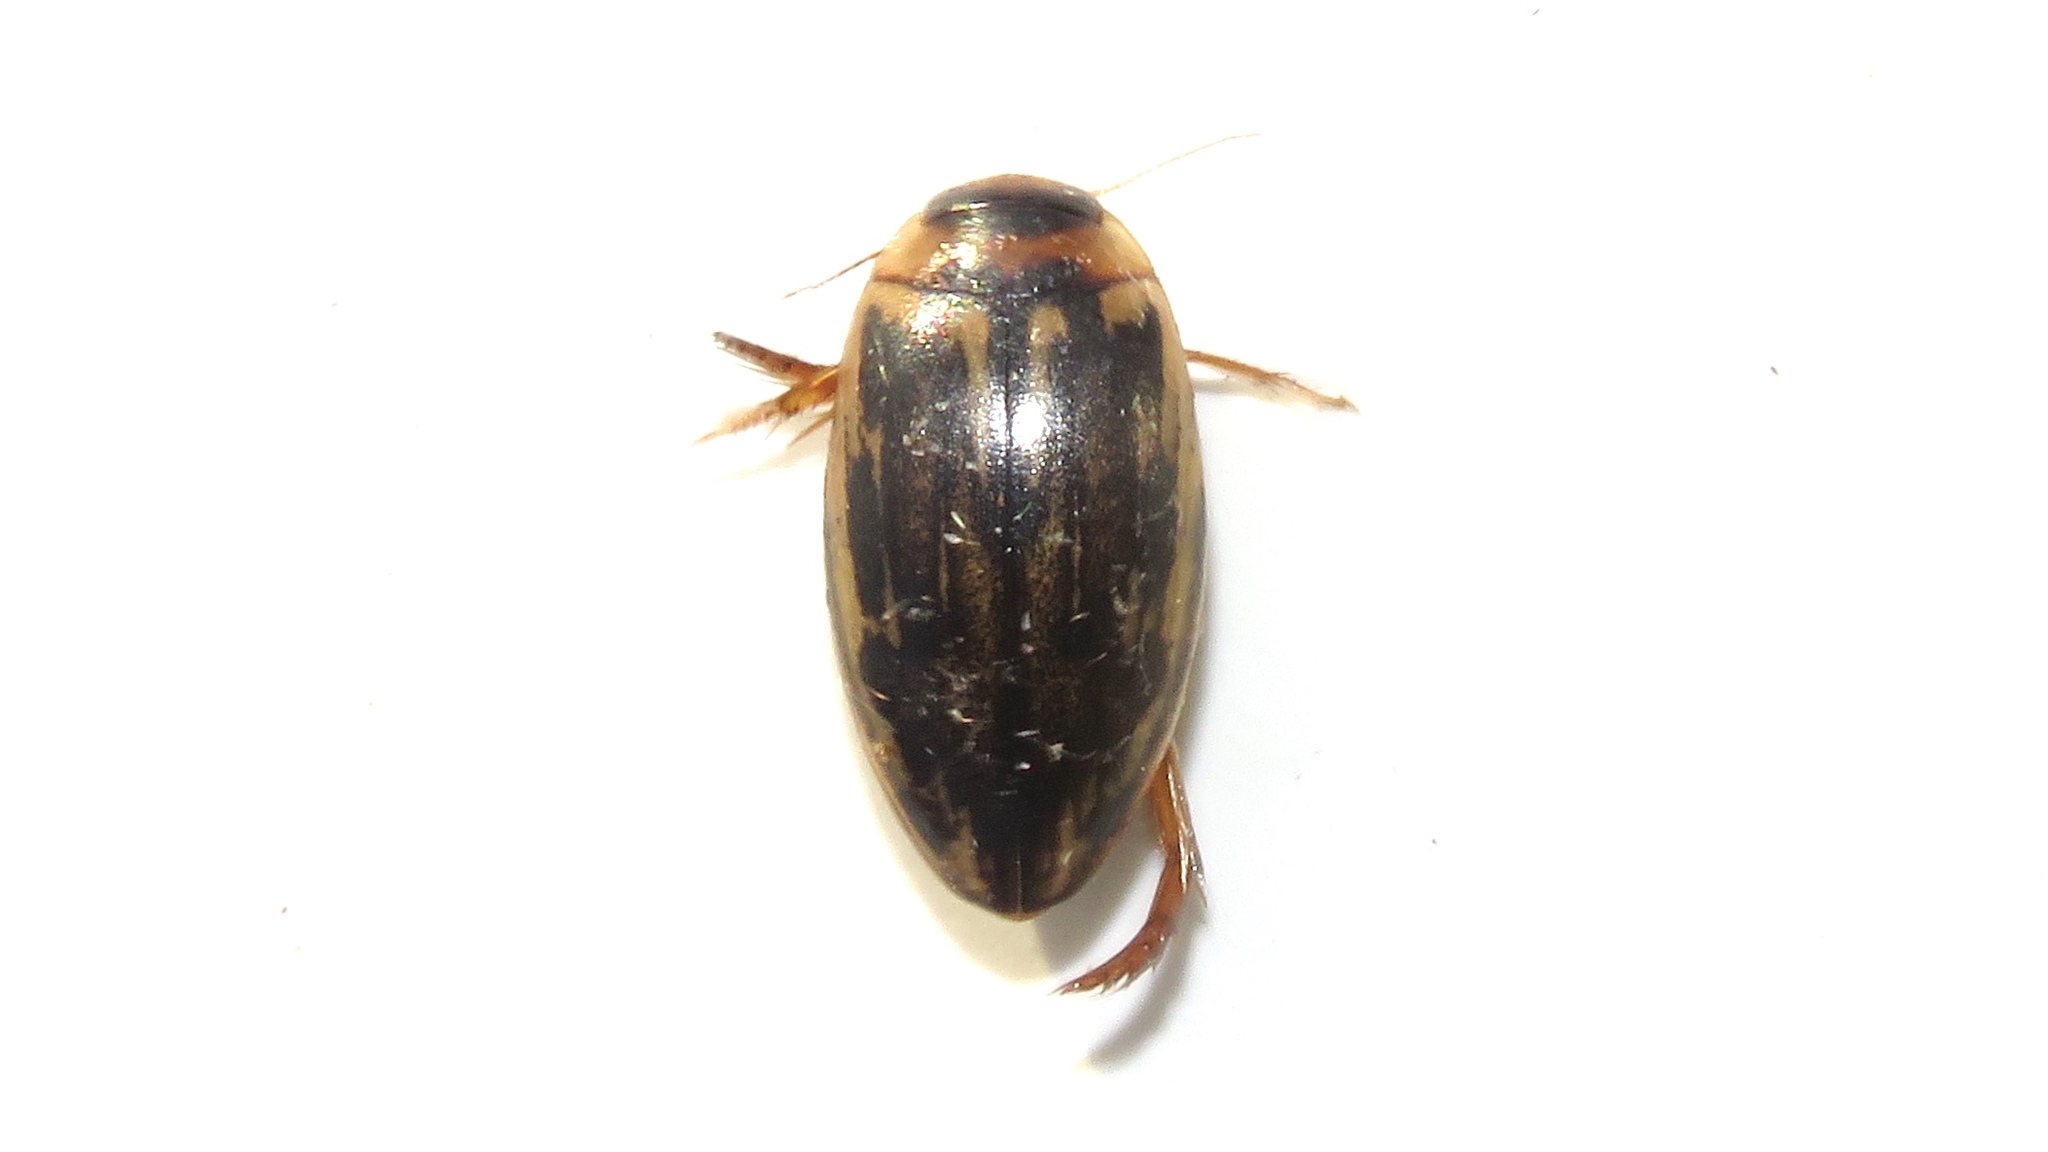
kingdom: Animalia
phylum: Arthropoda
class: Insecta
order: Coleoptera
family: Dytiscidae
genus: Coptotomus
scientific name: Coptotomus longulus
